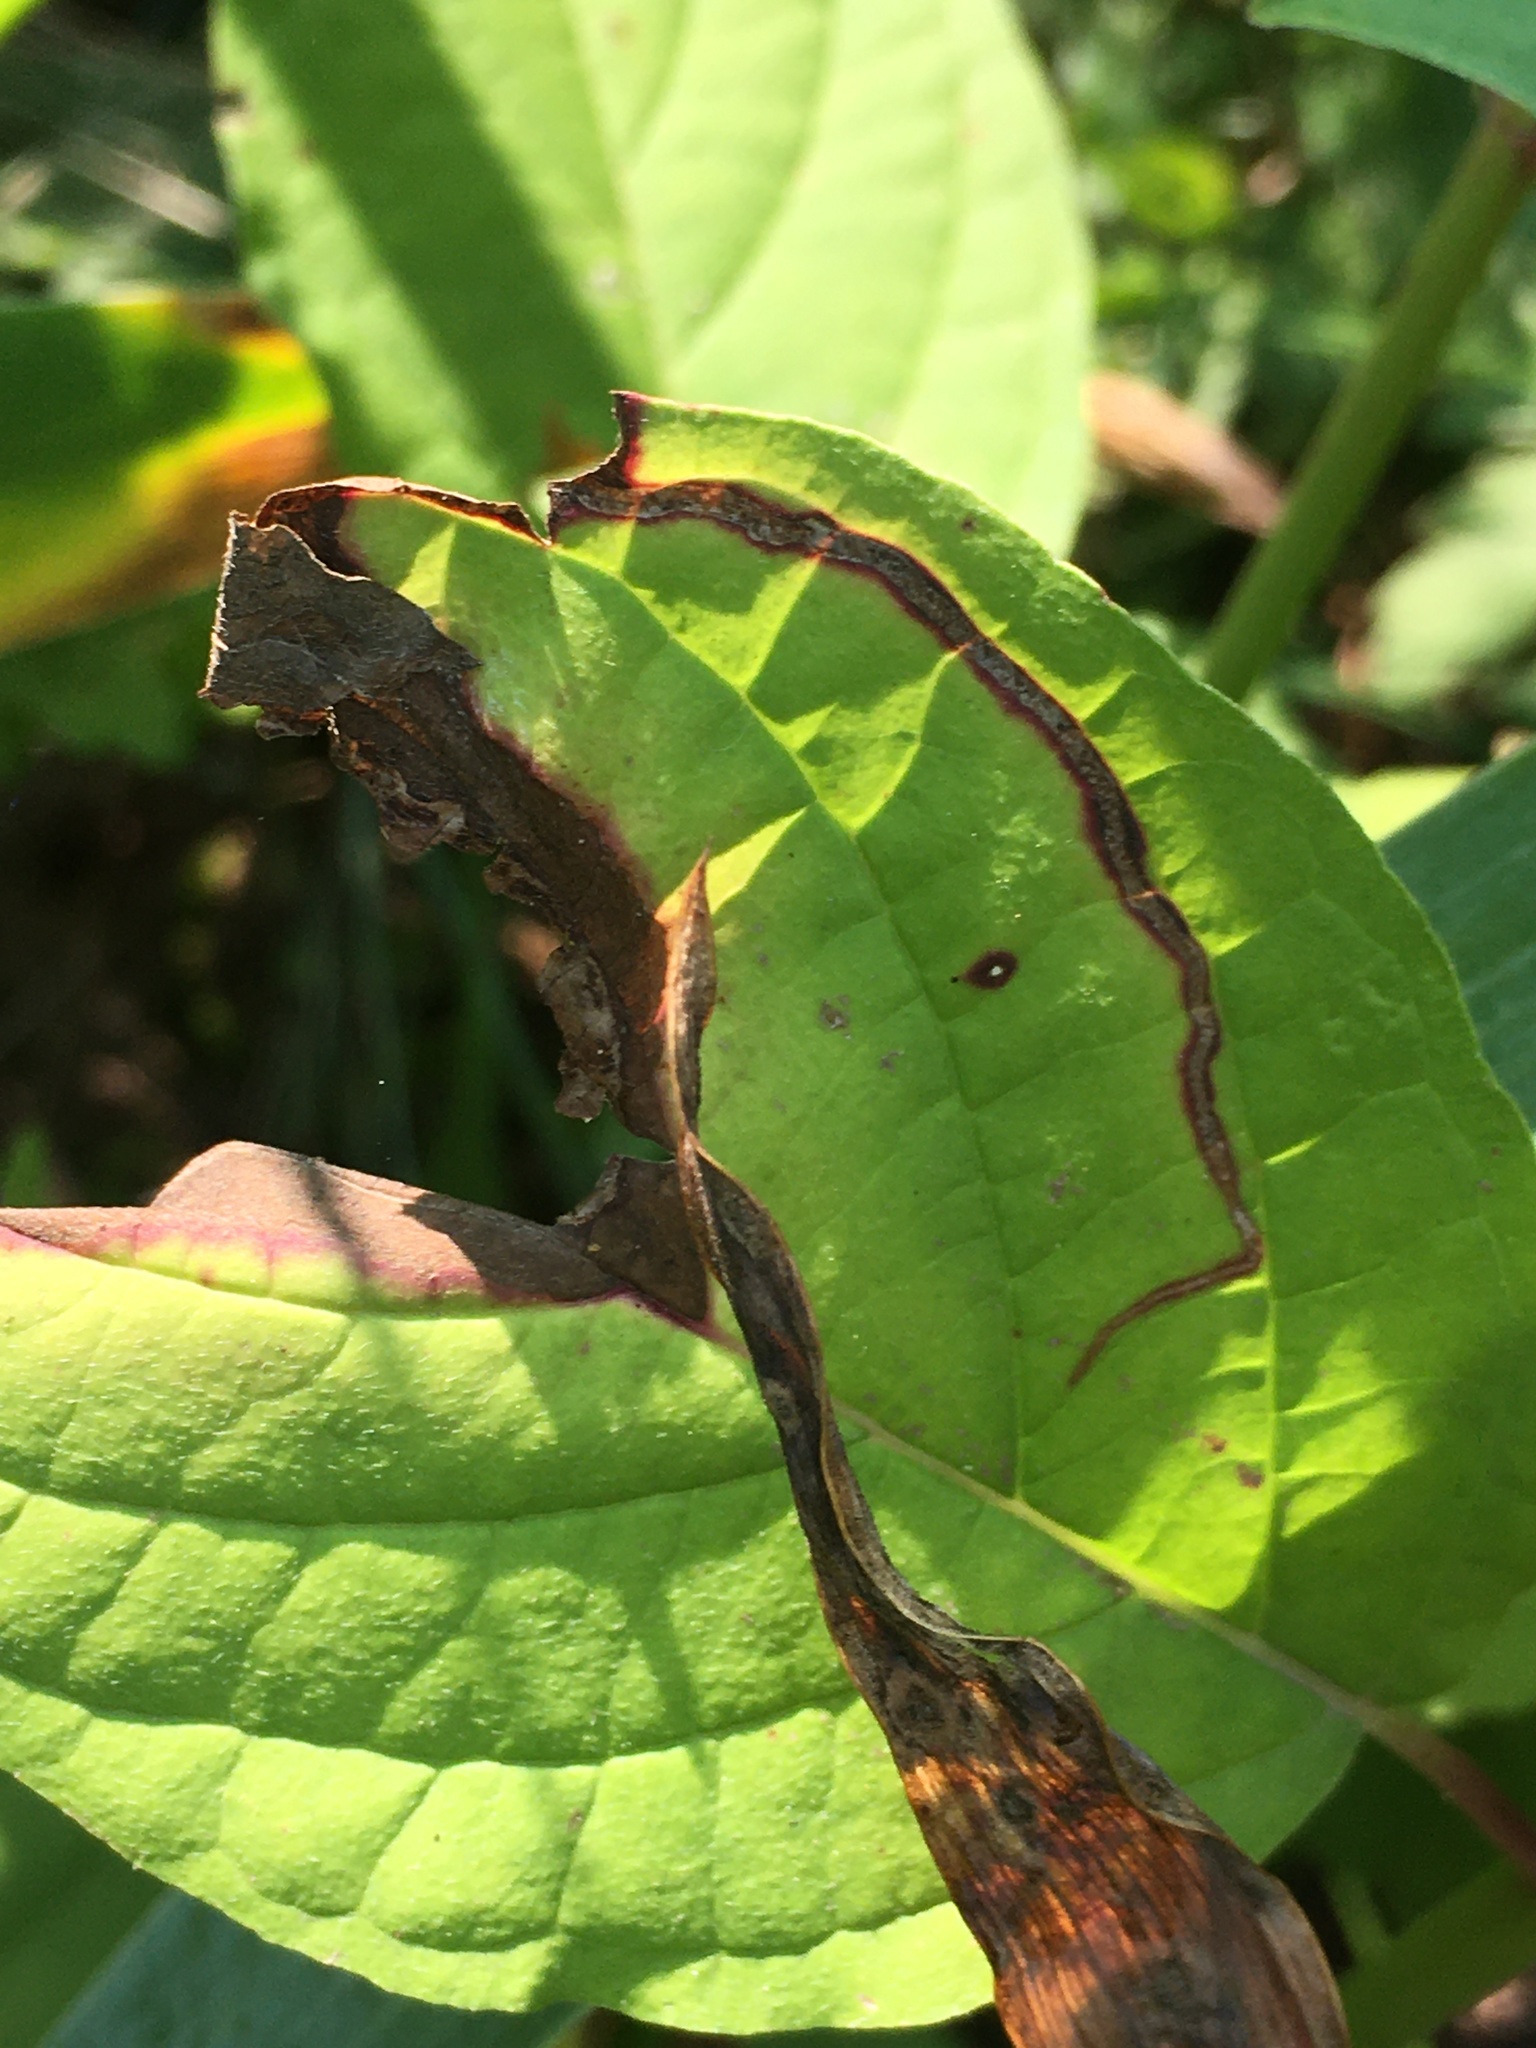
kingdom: Animalia
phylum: Arthropoda
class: Insecta
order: Diptera
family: Agromyzidae
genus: Phytomyza
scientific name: Phytomyza agromyzina
